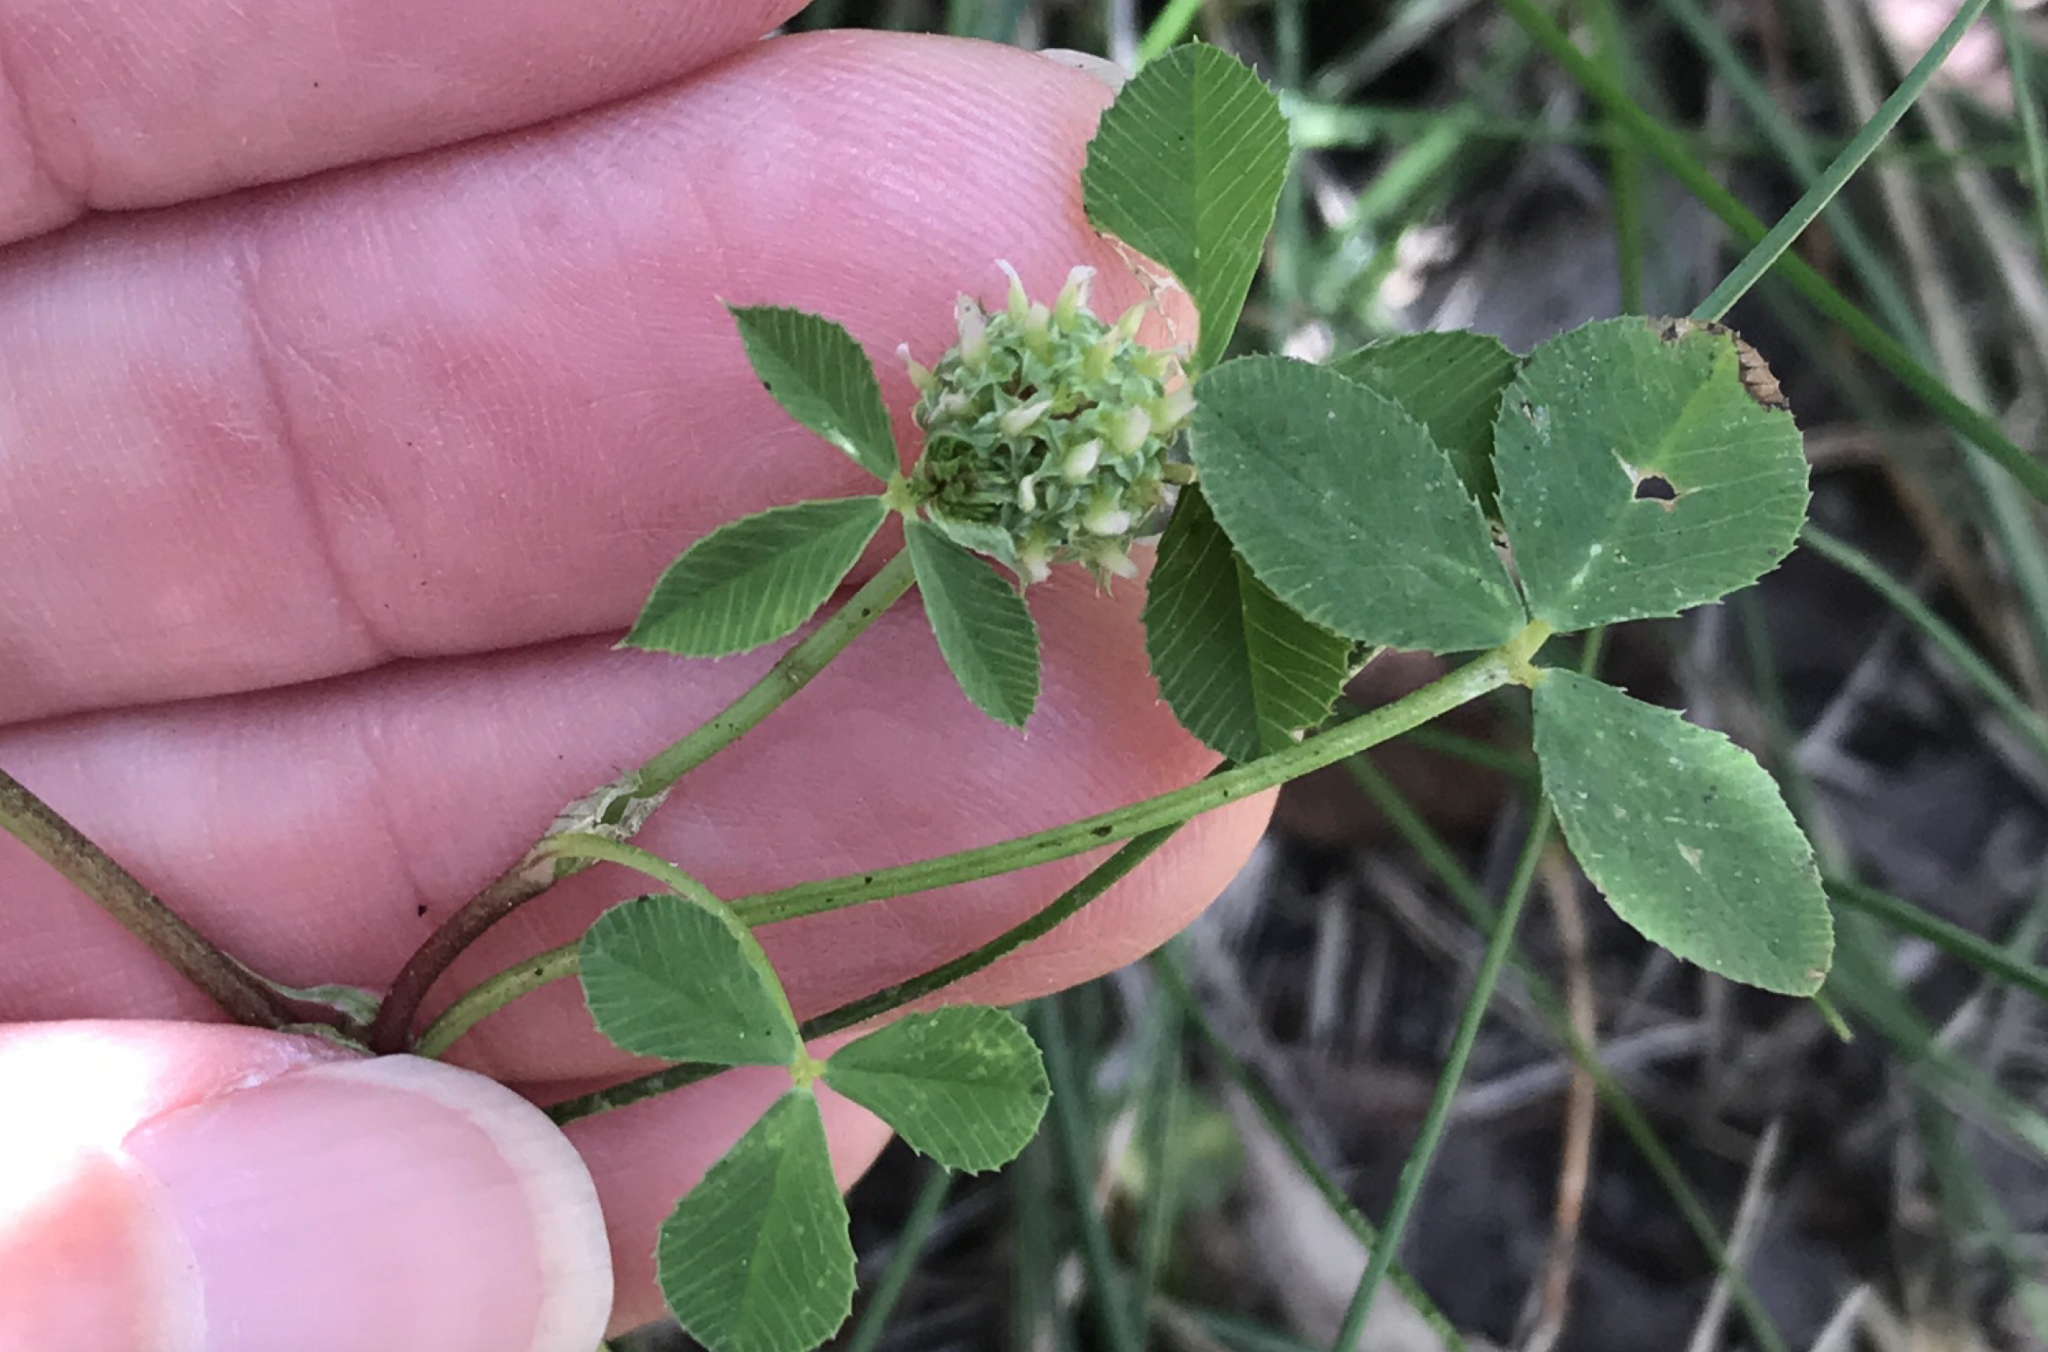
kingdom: Plantae
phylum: Tracheophyta
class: Magnoliopsida
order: Fabales
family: Fabaceae
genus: Trifolium
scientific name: Trifolium glomeratum
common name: Clustered clover
